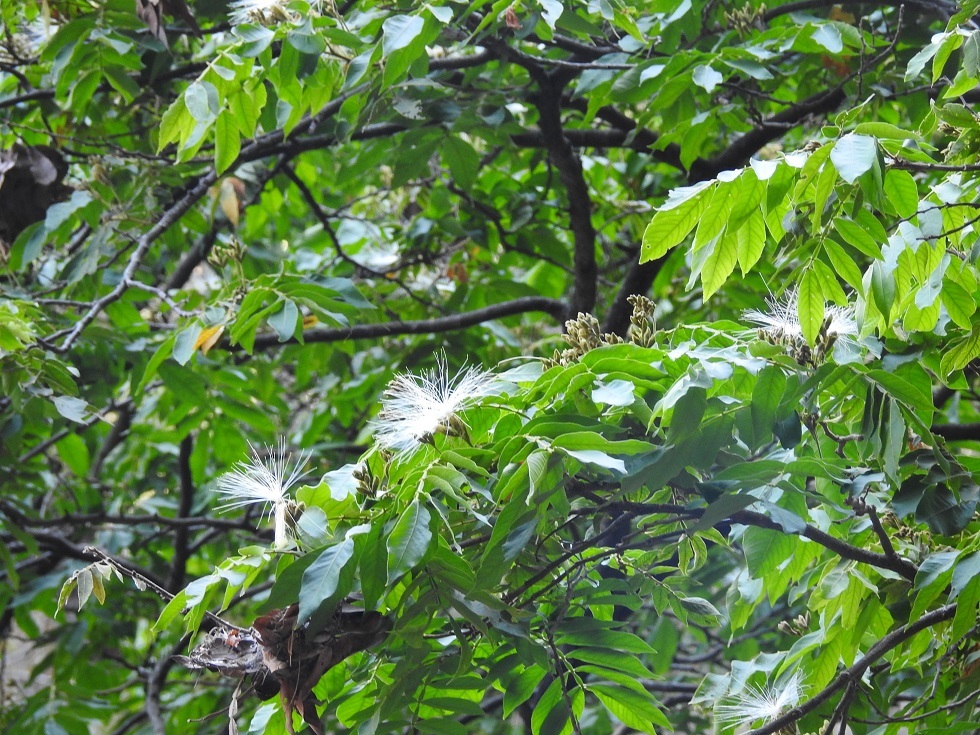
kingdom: Plantae
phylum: Tracheophyta
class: Magnoliopsida
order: Fabales
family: Fabaceae
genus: Inga
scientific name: Inga oerstediana
